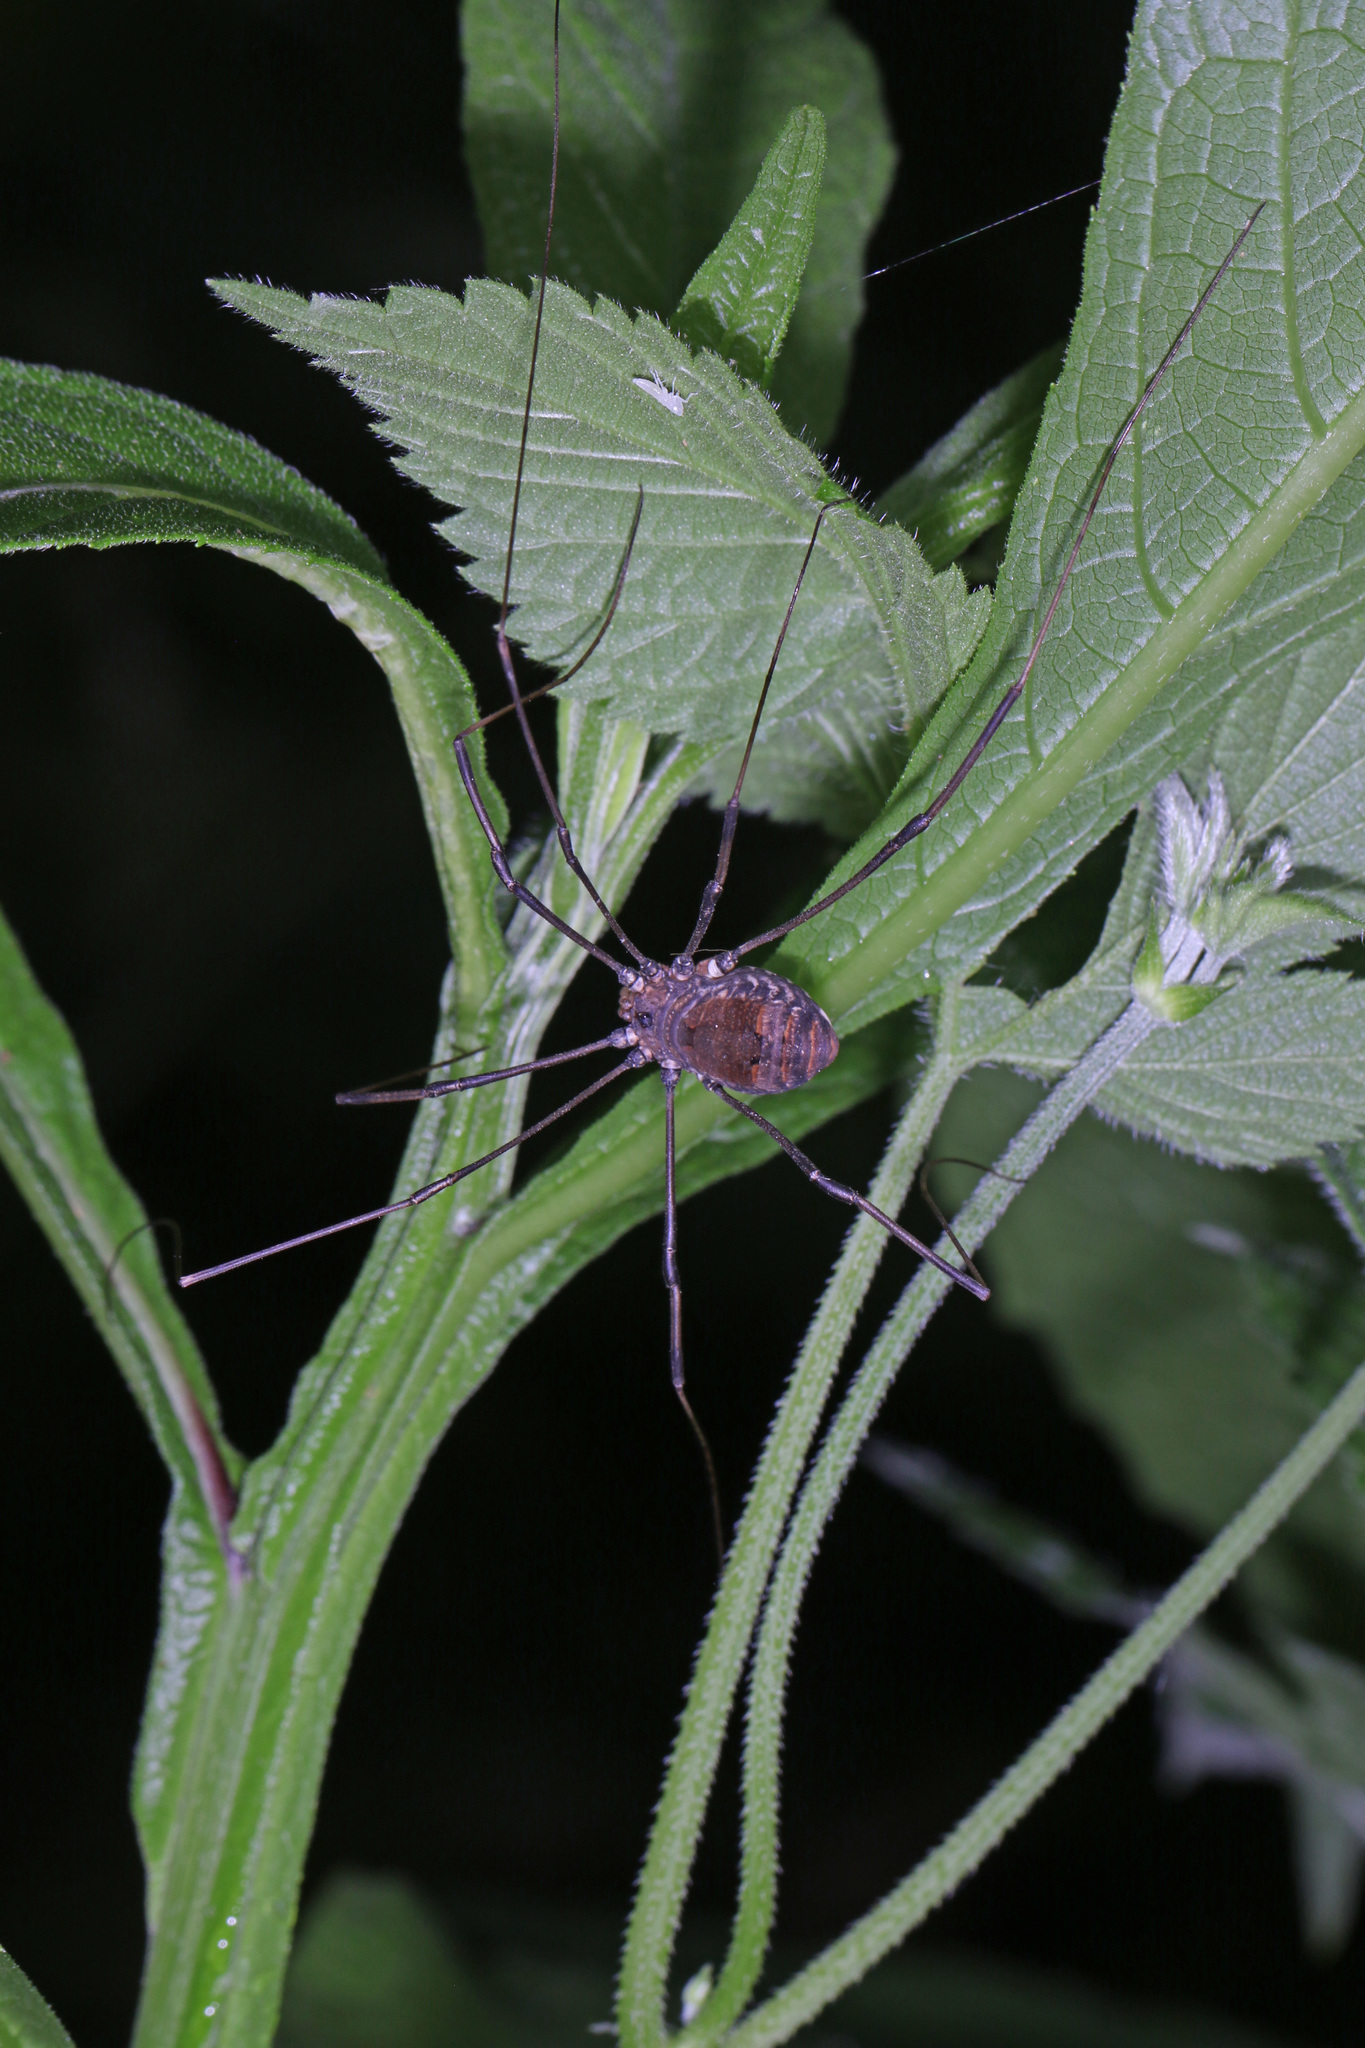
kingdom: Animalia
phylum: Arthropoda
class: Arachnida
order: Opiliones
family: Sclerosomatidae
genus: Leiobunum
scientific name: Leiobunum verrucosum
